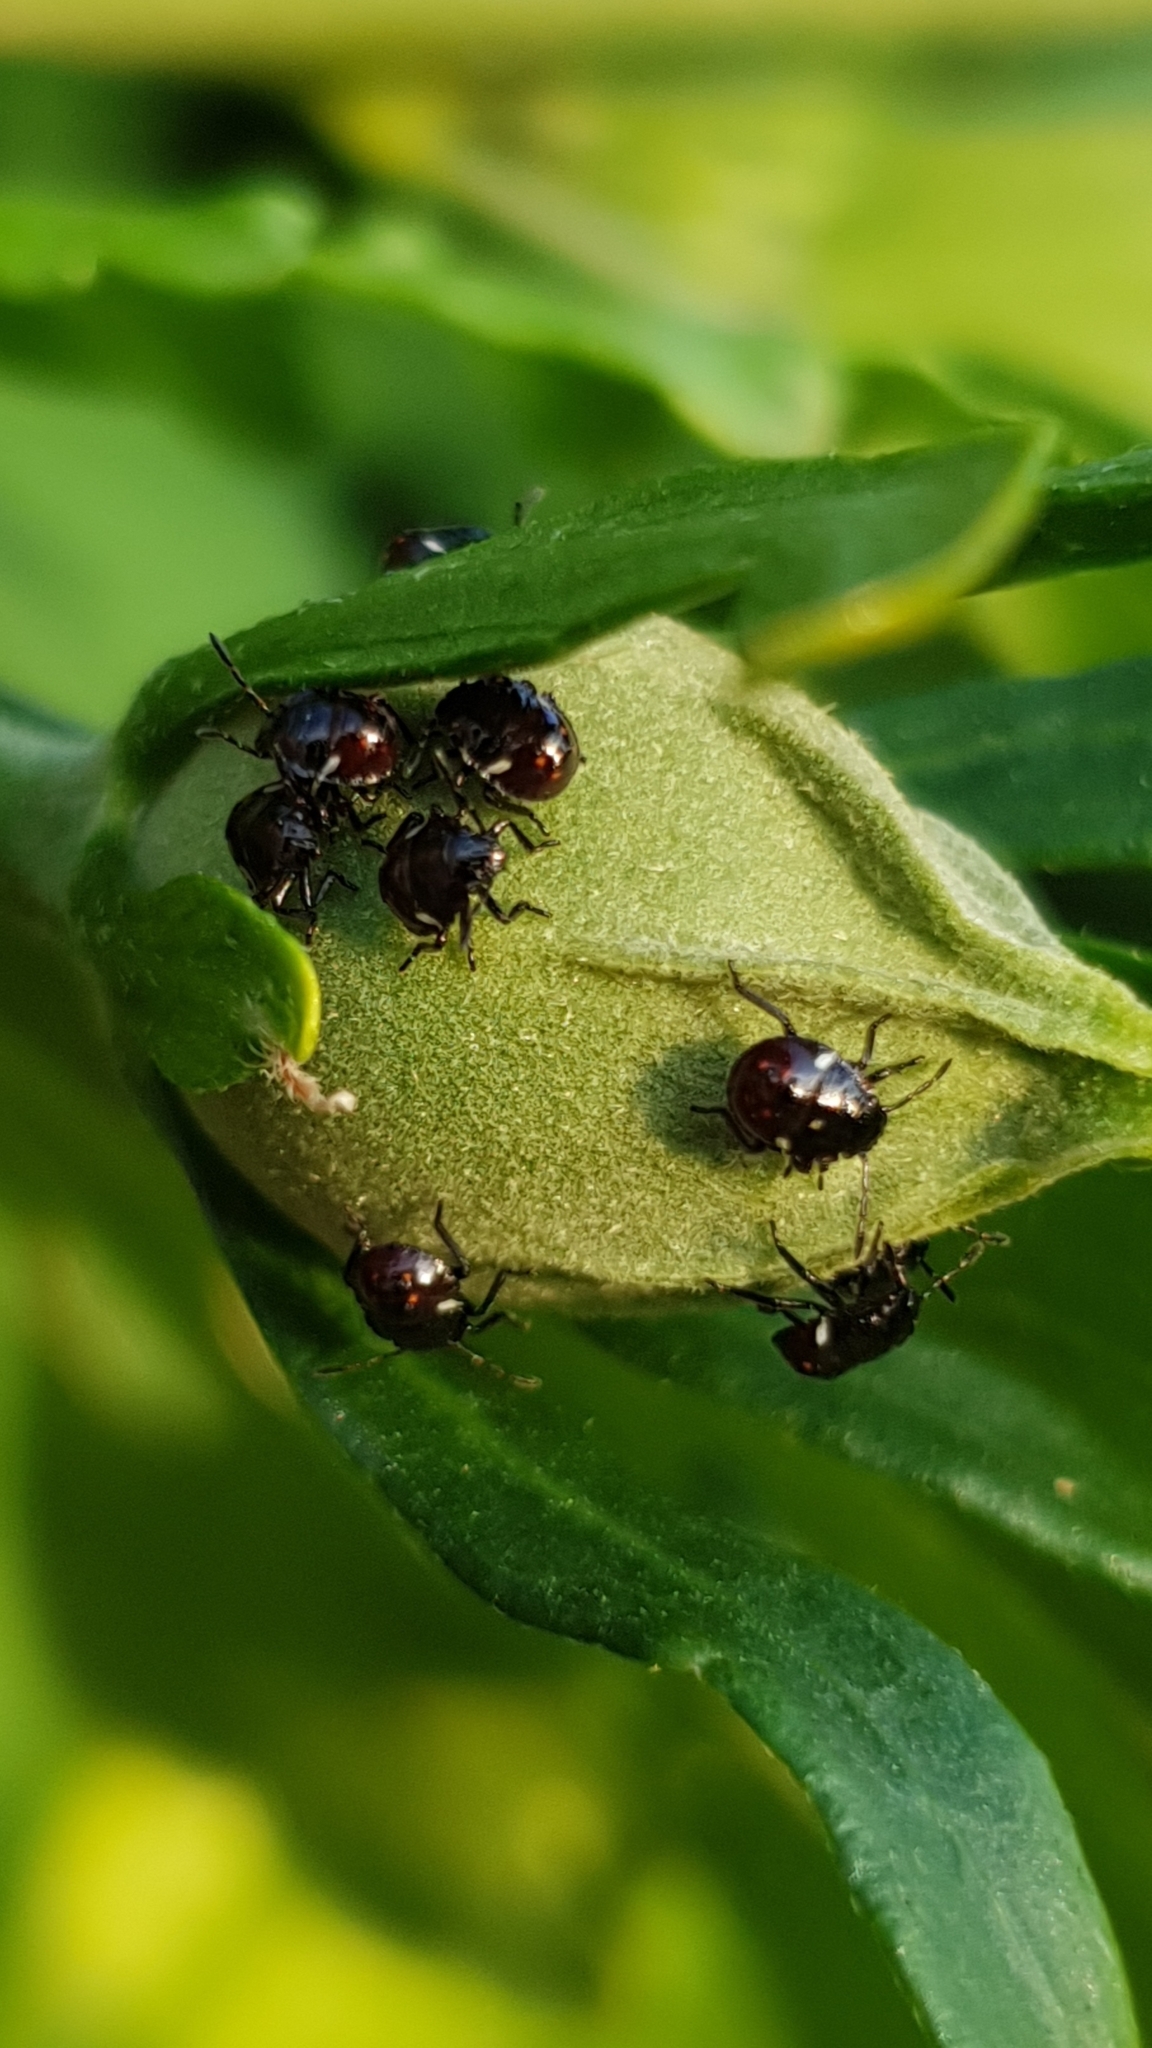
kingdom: Animalia
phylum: Arthropoda
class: Insecta
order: Hemiptera
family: Pentatomidae
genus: Nezara
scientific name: Nezara viridula
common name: Southern green stink bug
